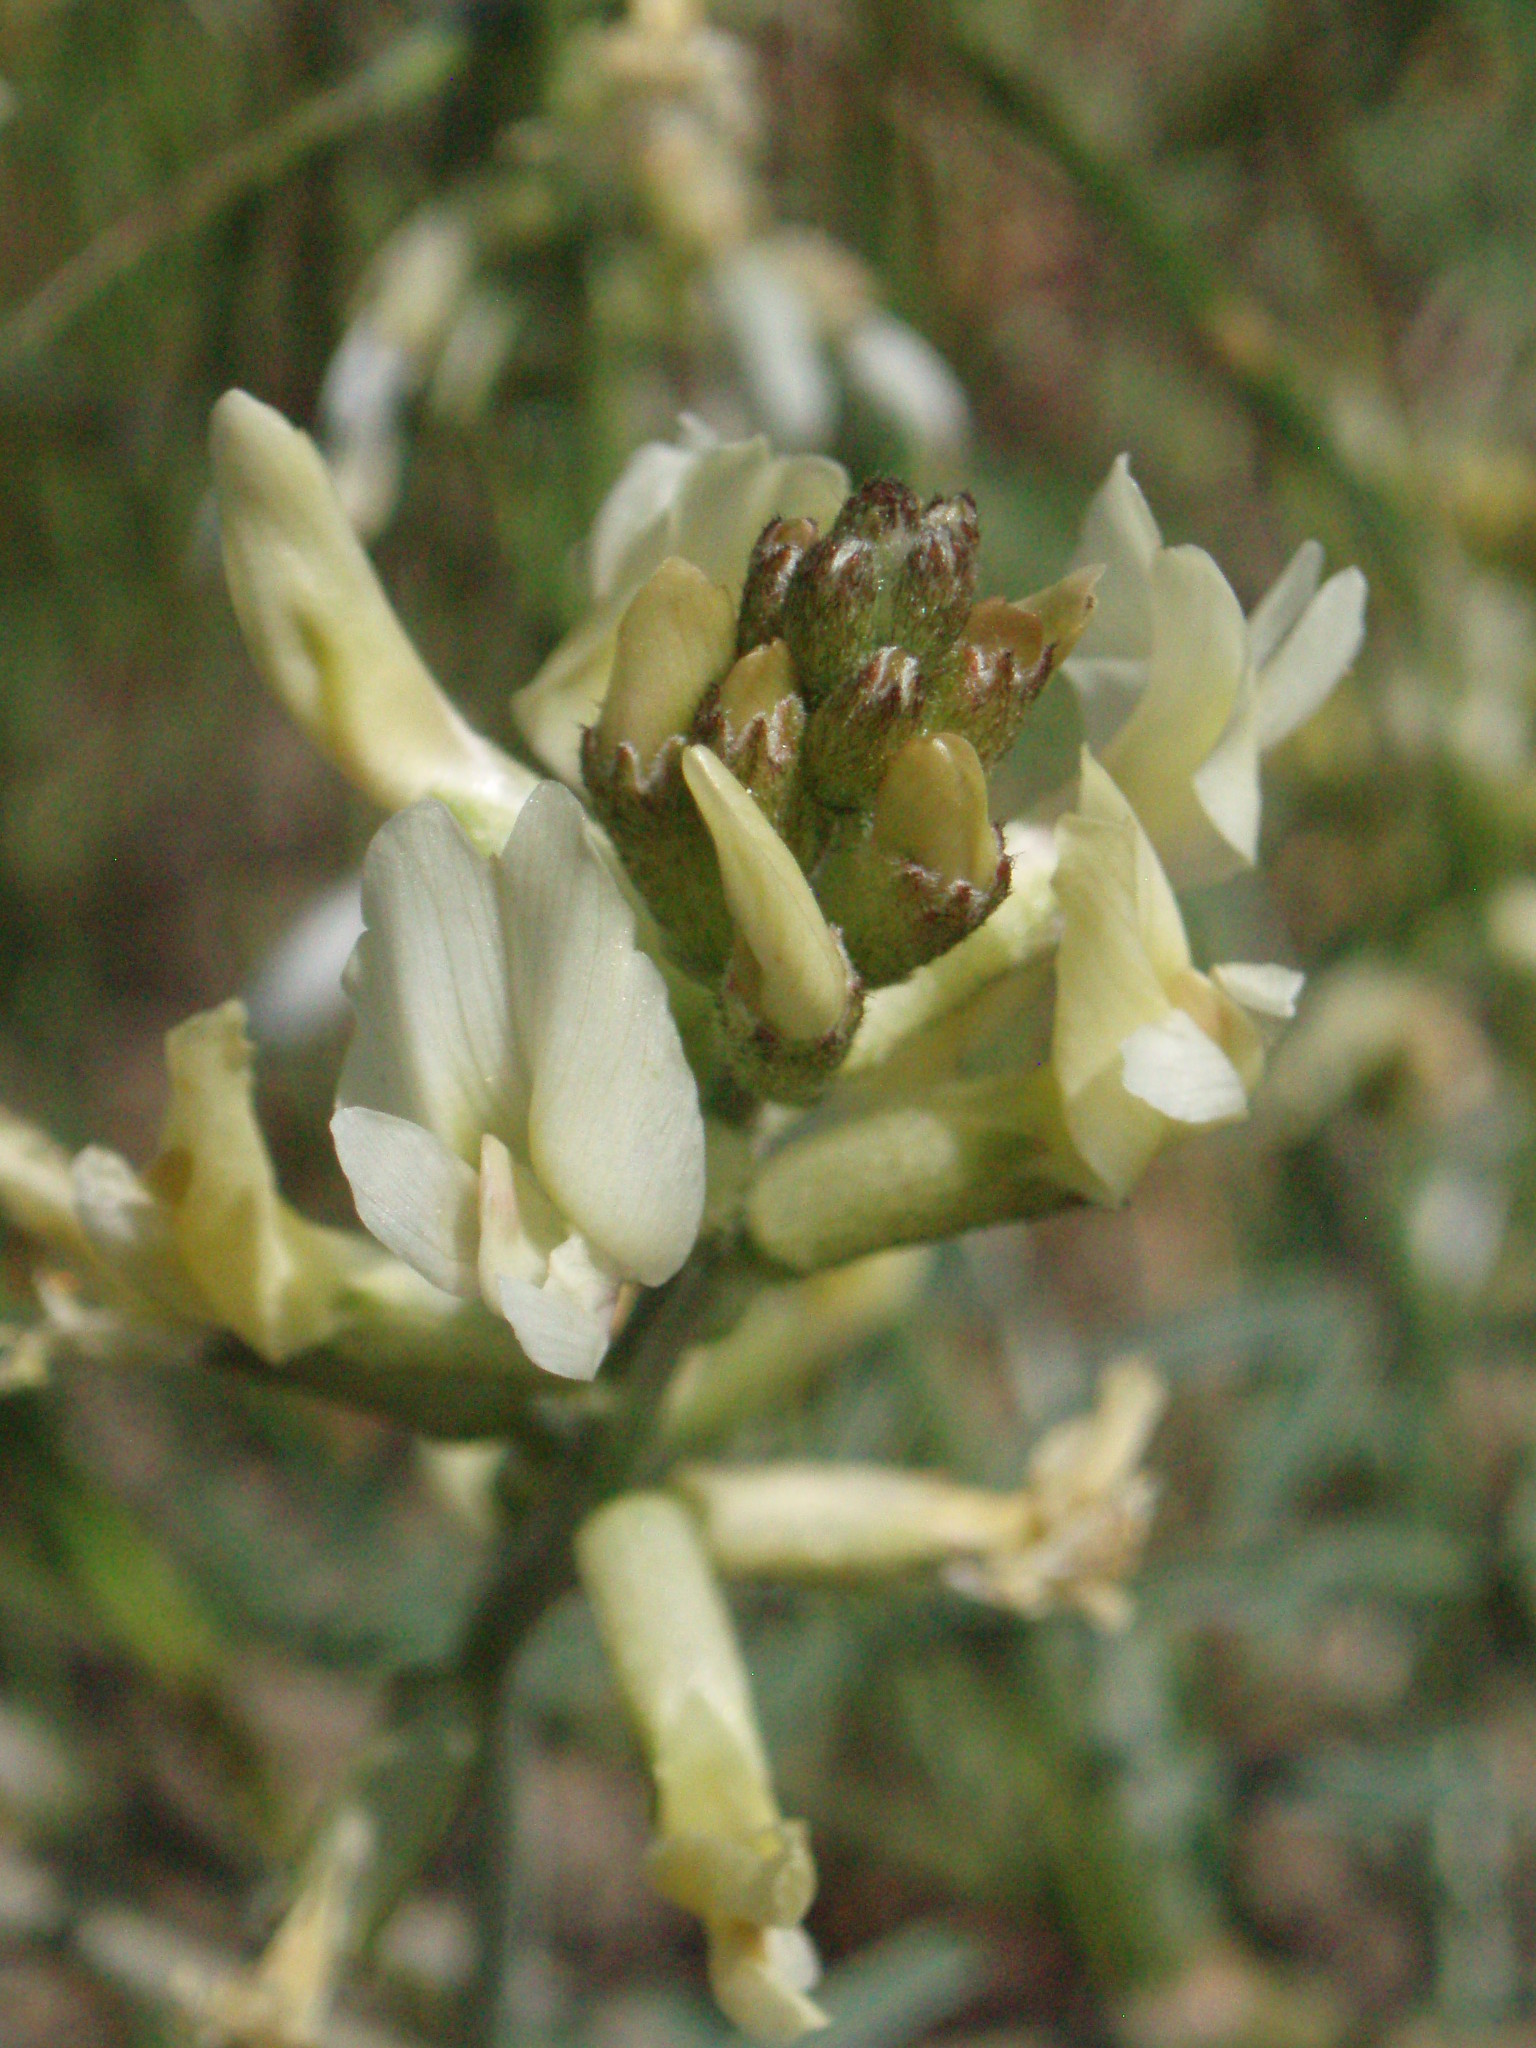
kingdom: Plantae
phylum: Tracheophyta
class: Magnoliopsida
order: Fabales
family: Fabaceae
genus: Astragalus
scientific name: Astragalus sclerocarpus
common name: The dalles milk-vetch
